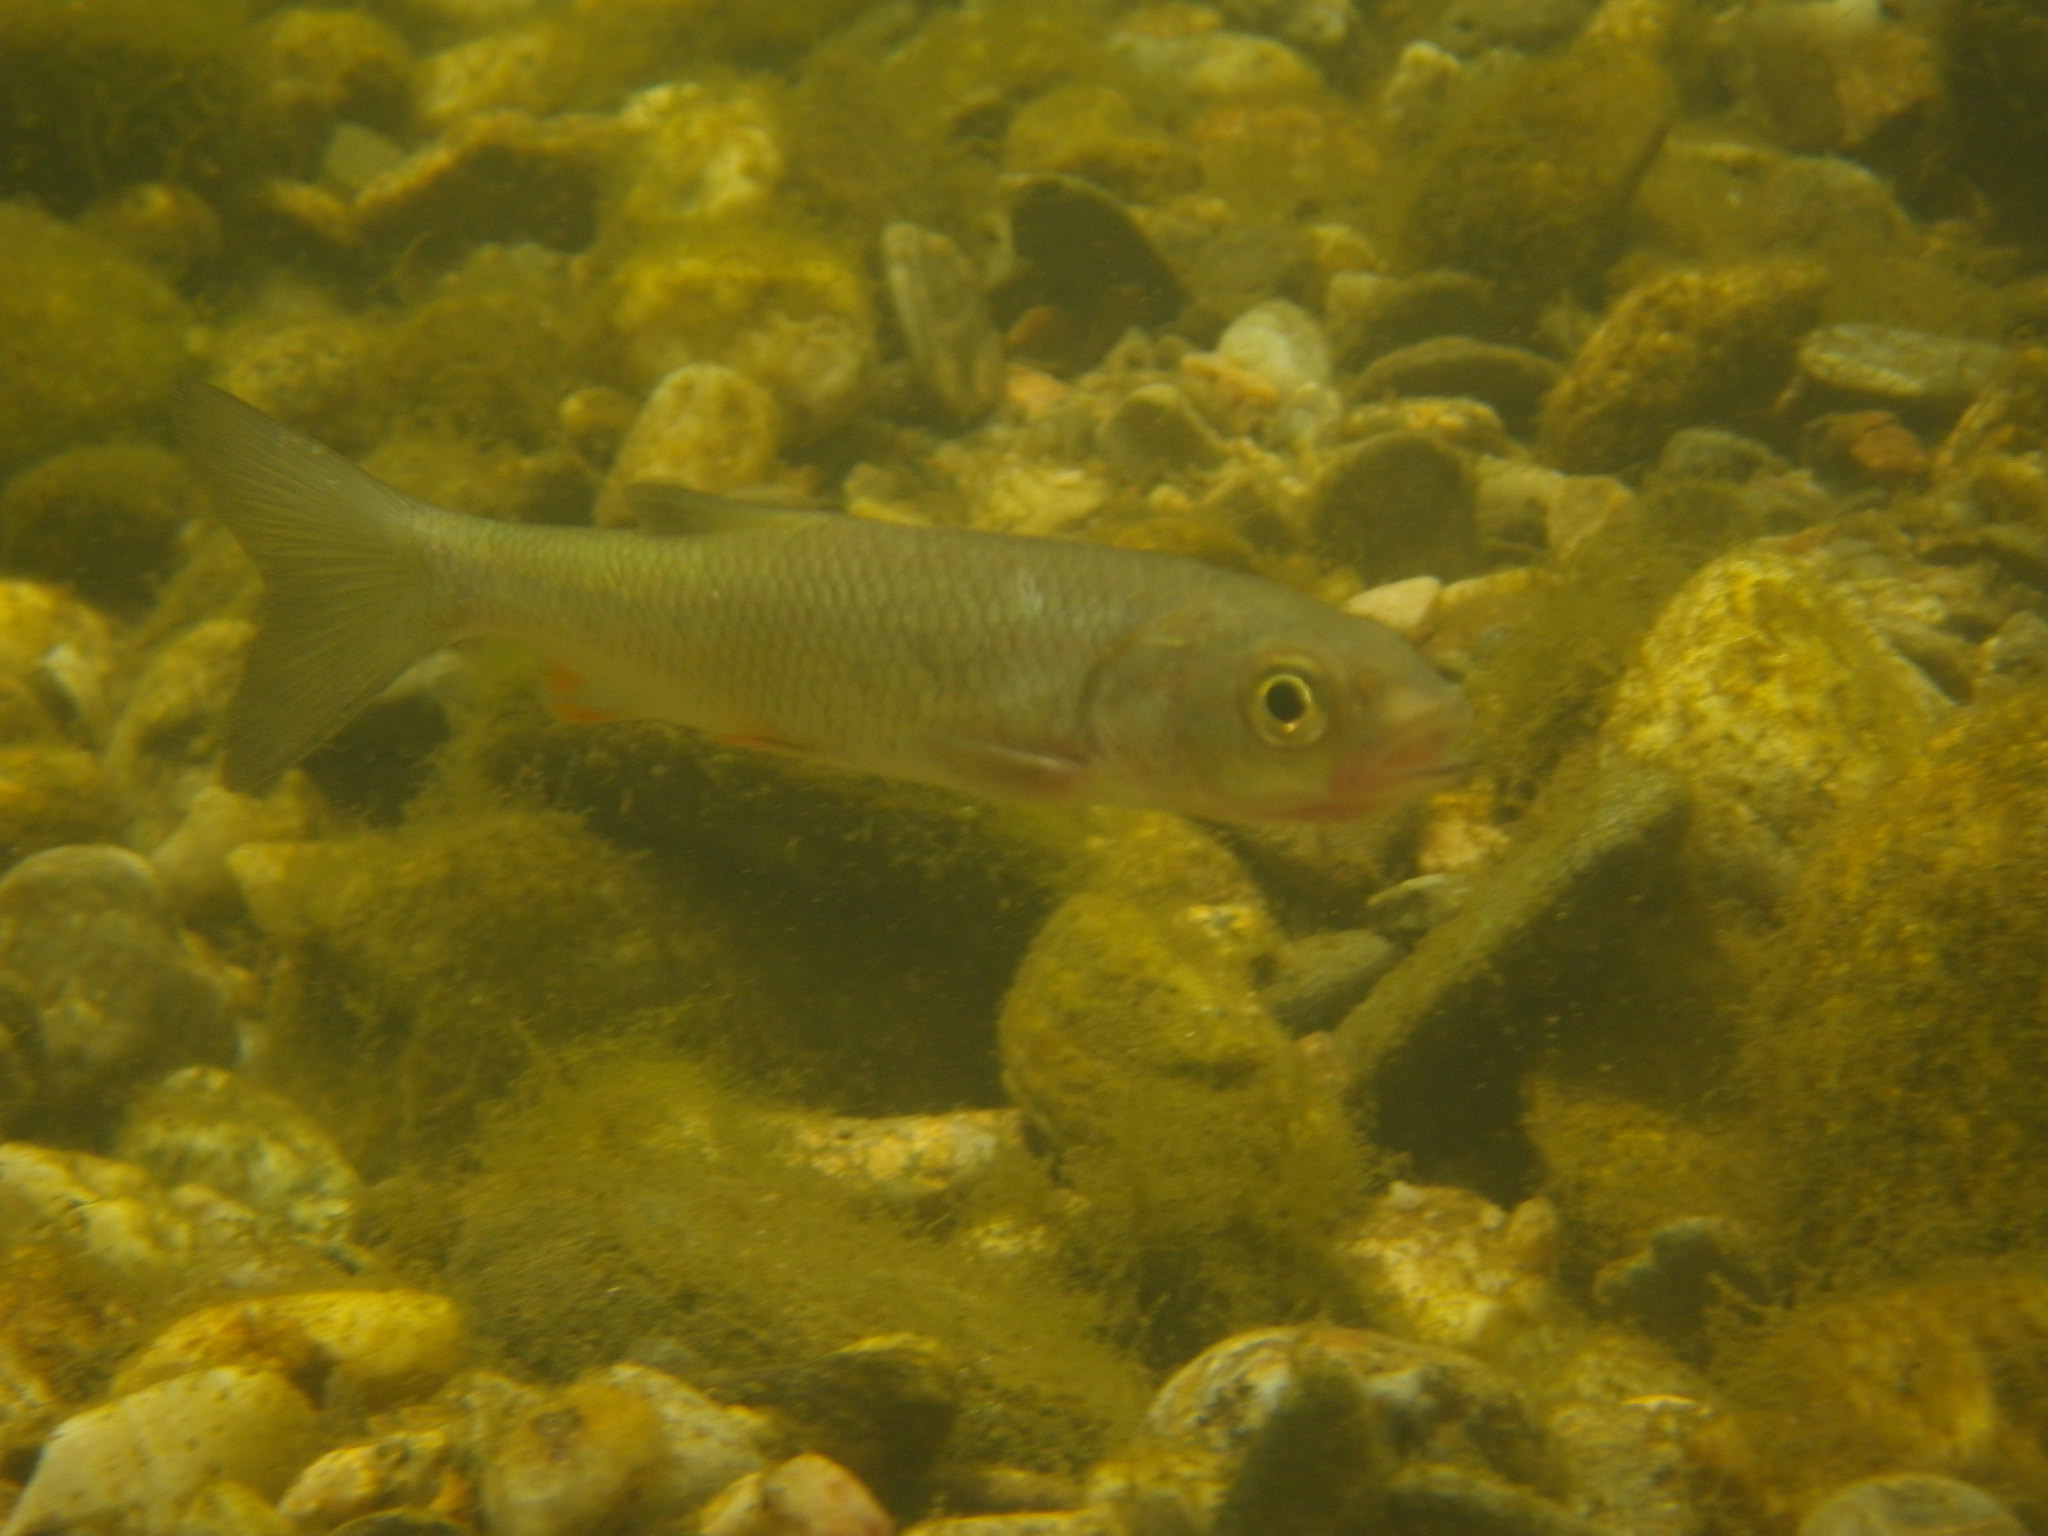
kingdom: Animalia
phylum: Chordata
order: Cypriniformes
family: Cyprinidae
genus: Squalius
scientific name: Squalius cephalus
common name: Chub
